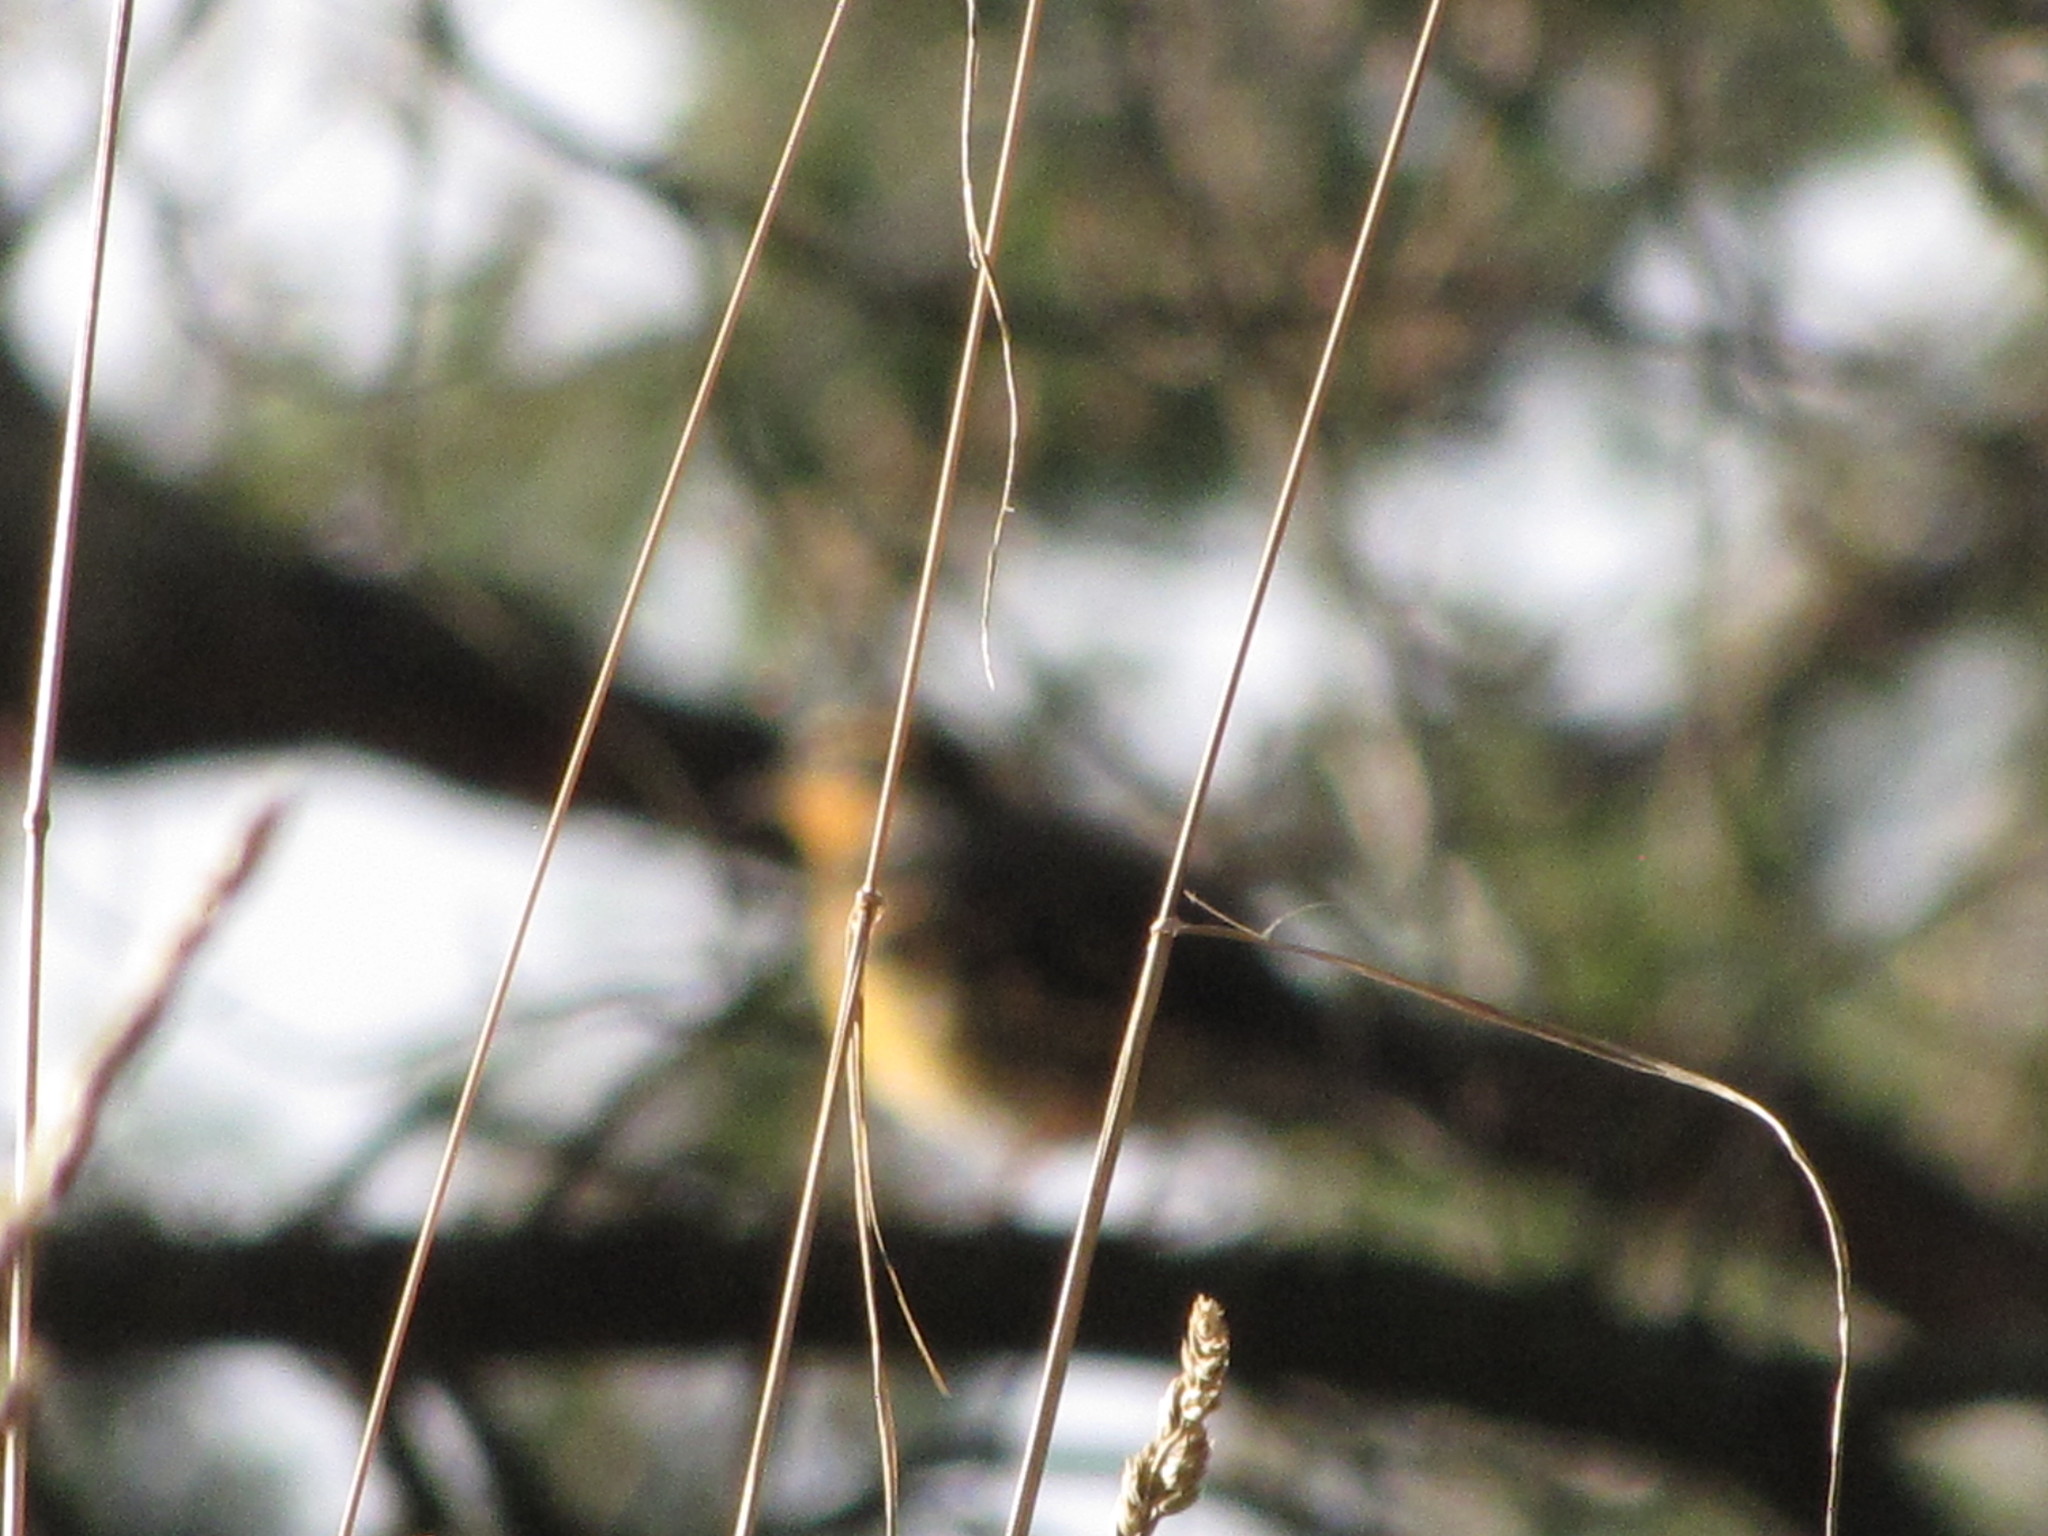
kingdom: Animalia
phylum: Chordata
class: Aves
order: Passeriformes
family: Turdidae
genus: Ixoreus
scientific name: Ixoreus naevius
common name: Varied thrush
